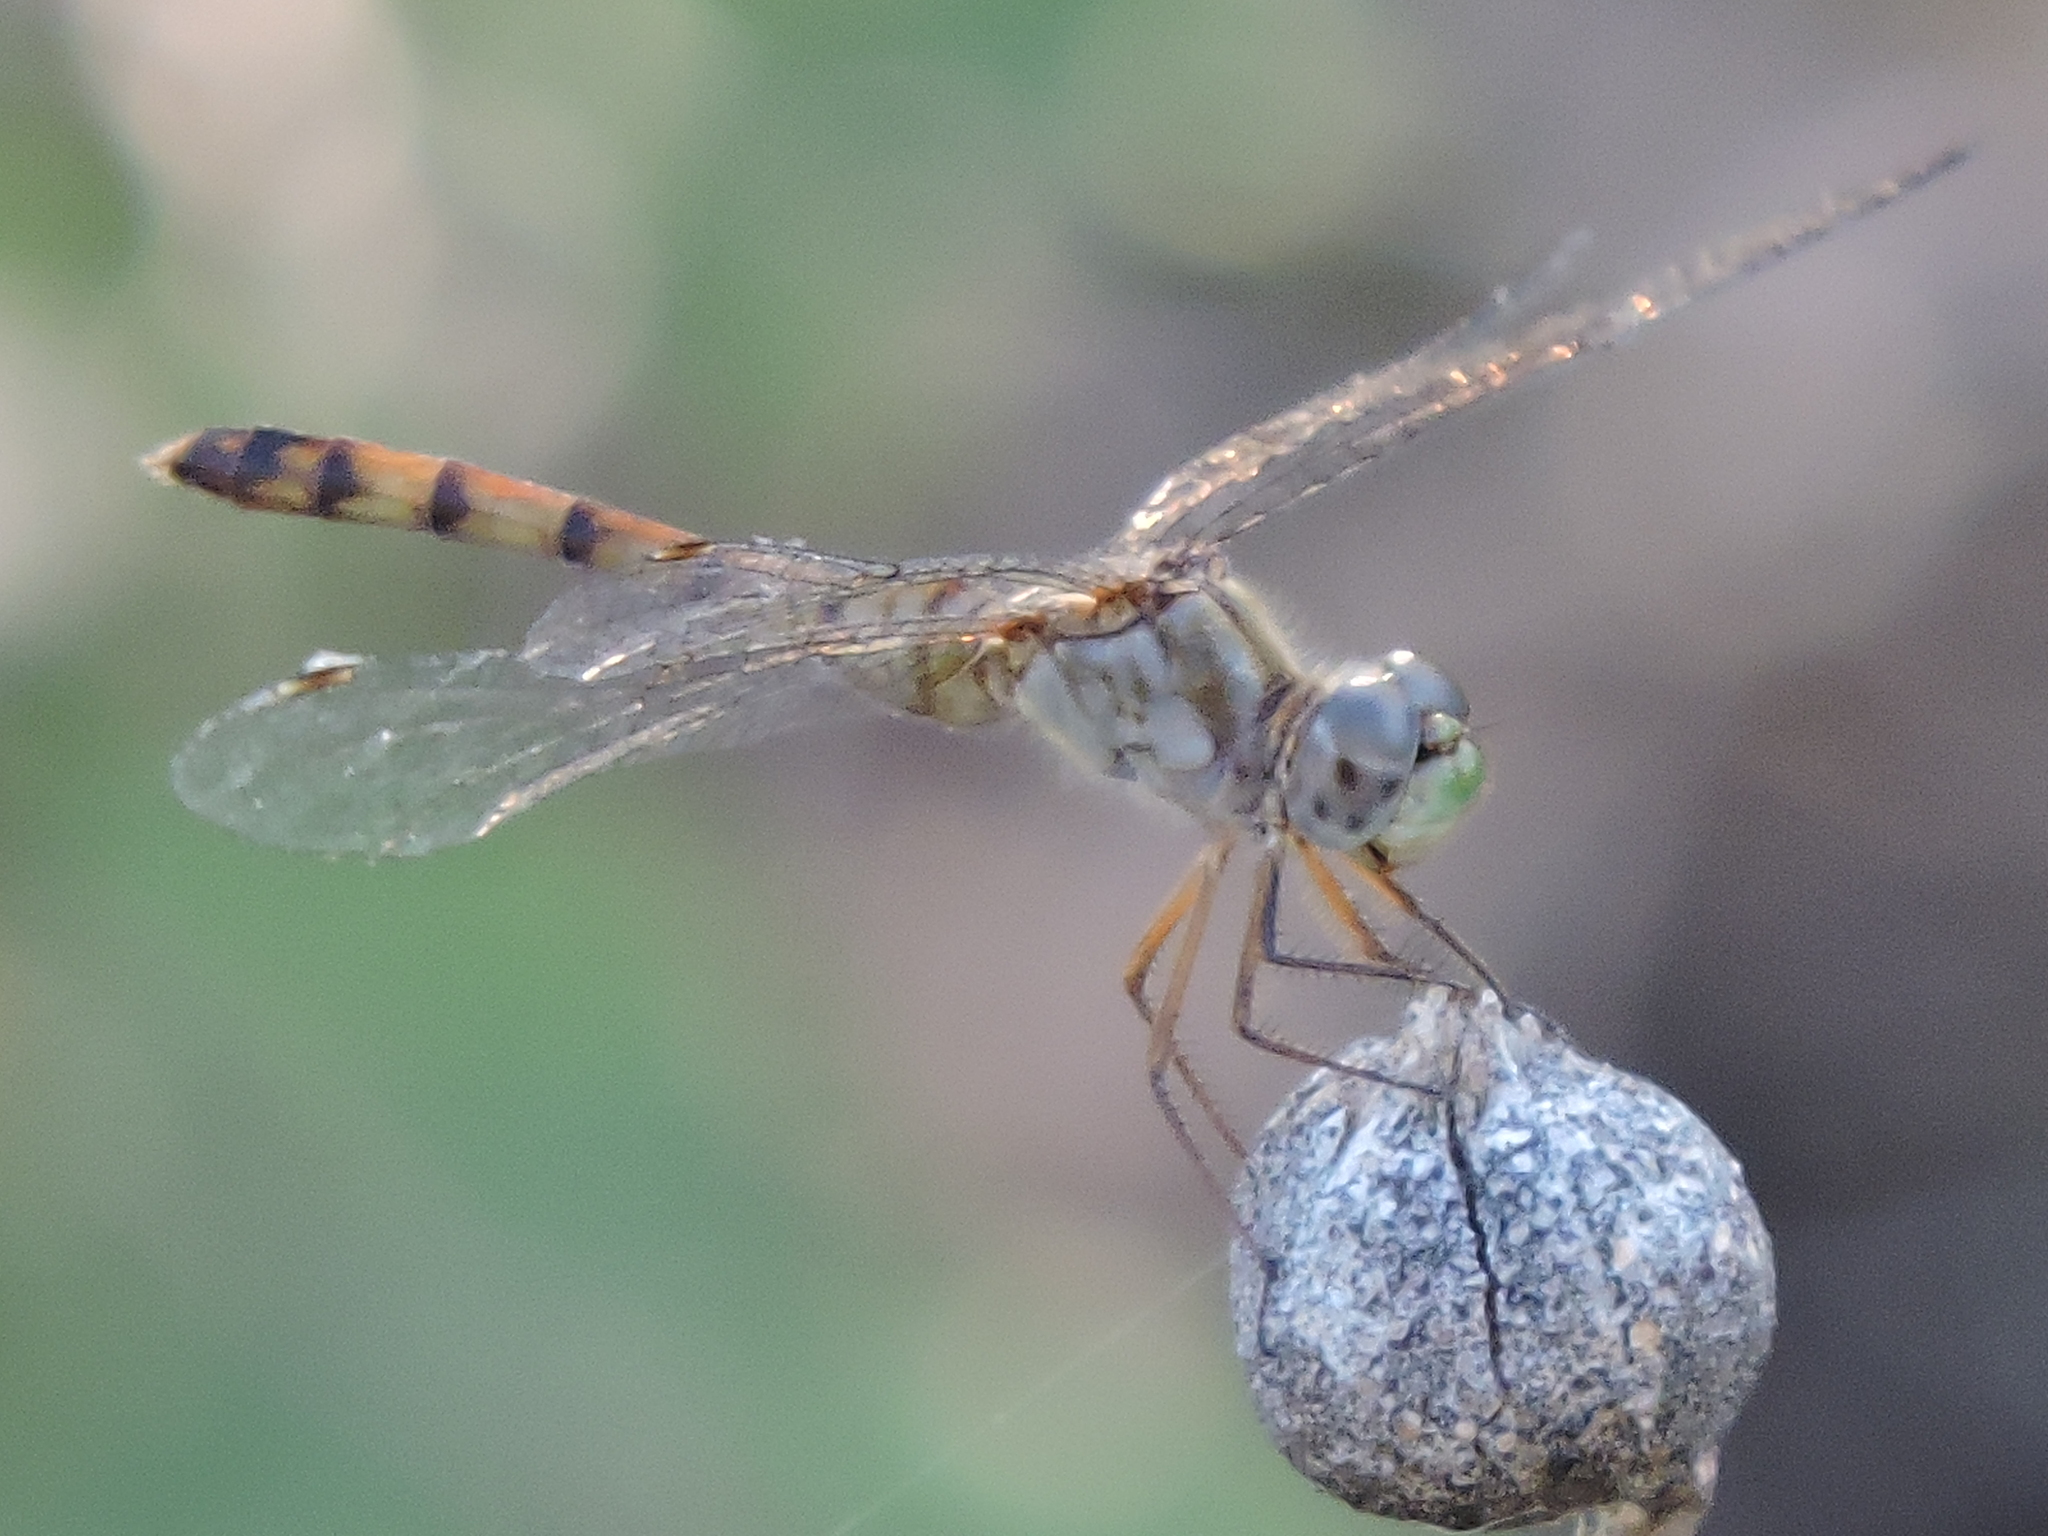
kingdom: Animalia
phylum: Arthropoda
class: Insecta
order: Odonata
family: Libellulidae
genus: Sympetrum
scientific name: Sympetrum ambiguum
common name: Blue-faced meadowhawk
